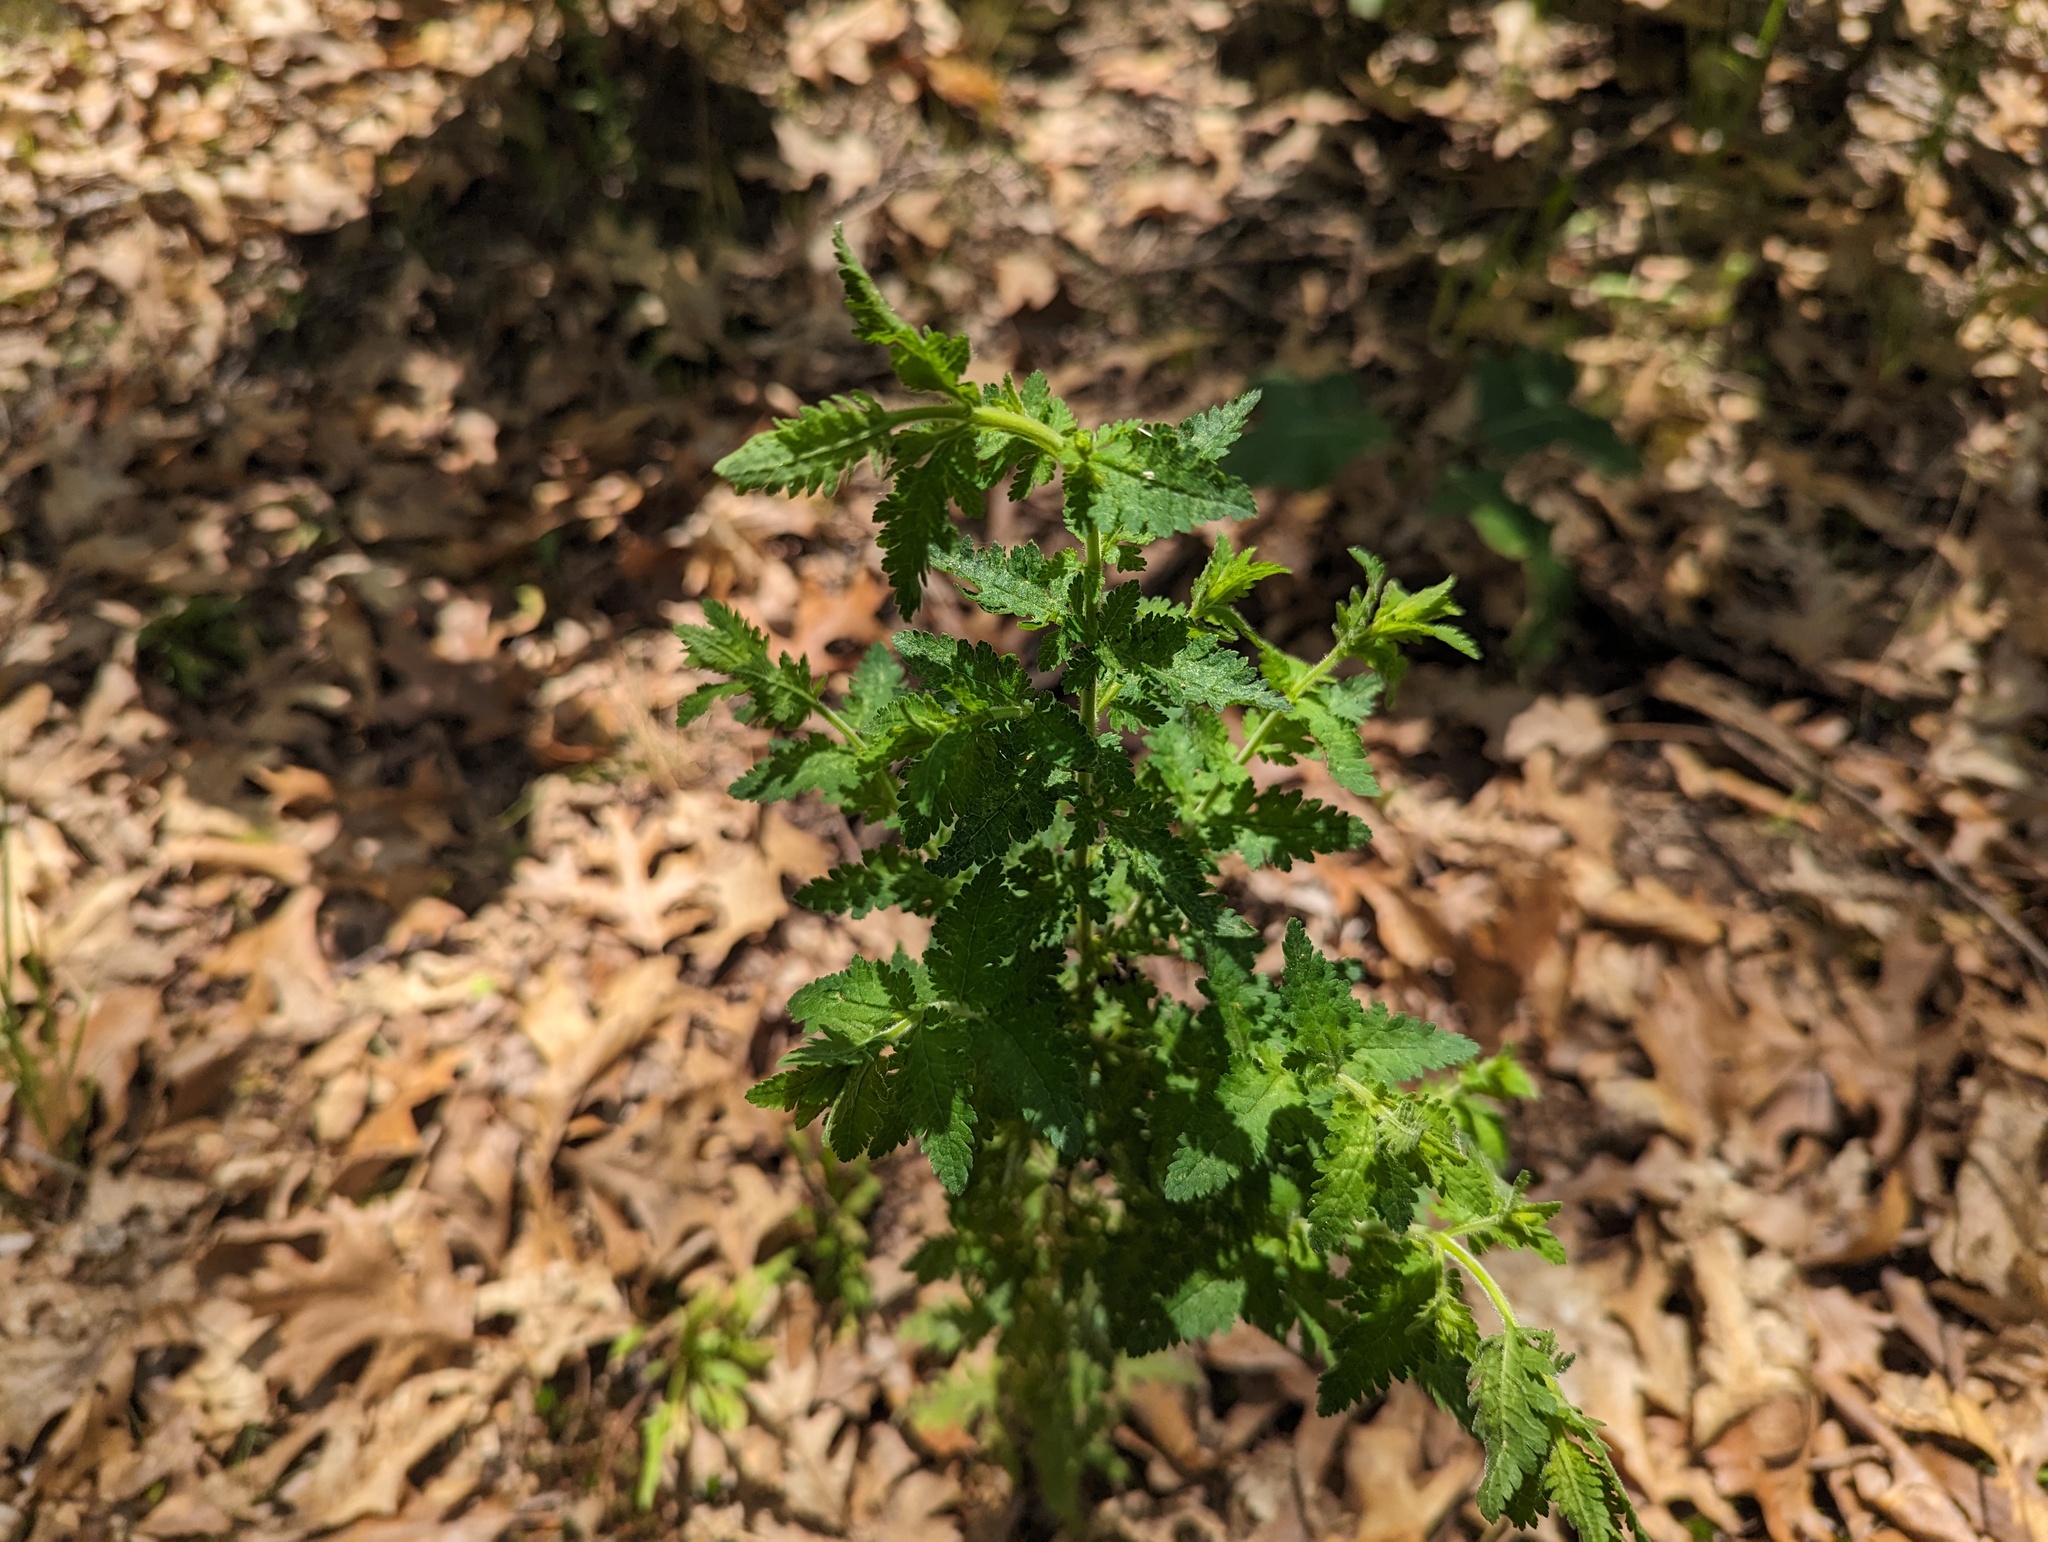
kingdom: Plantae
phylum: Tracheophyta
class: Magnoliopsida
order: Lamiales
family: Orobanchaceae
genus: Aureolaria
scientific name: Aureolaria pedicularia
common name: Annual false foxglove
